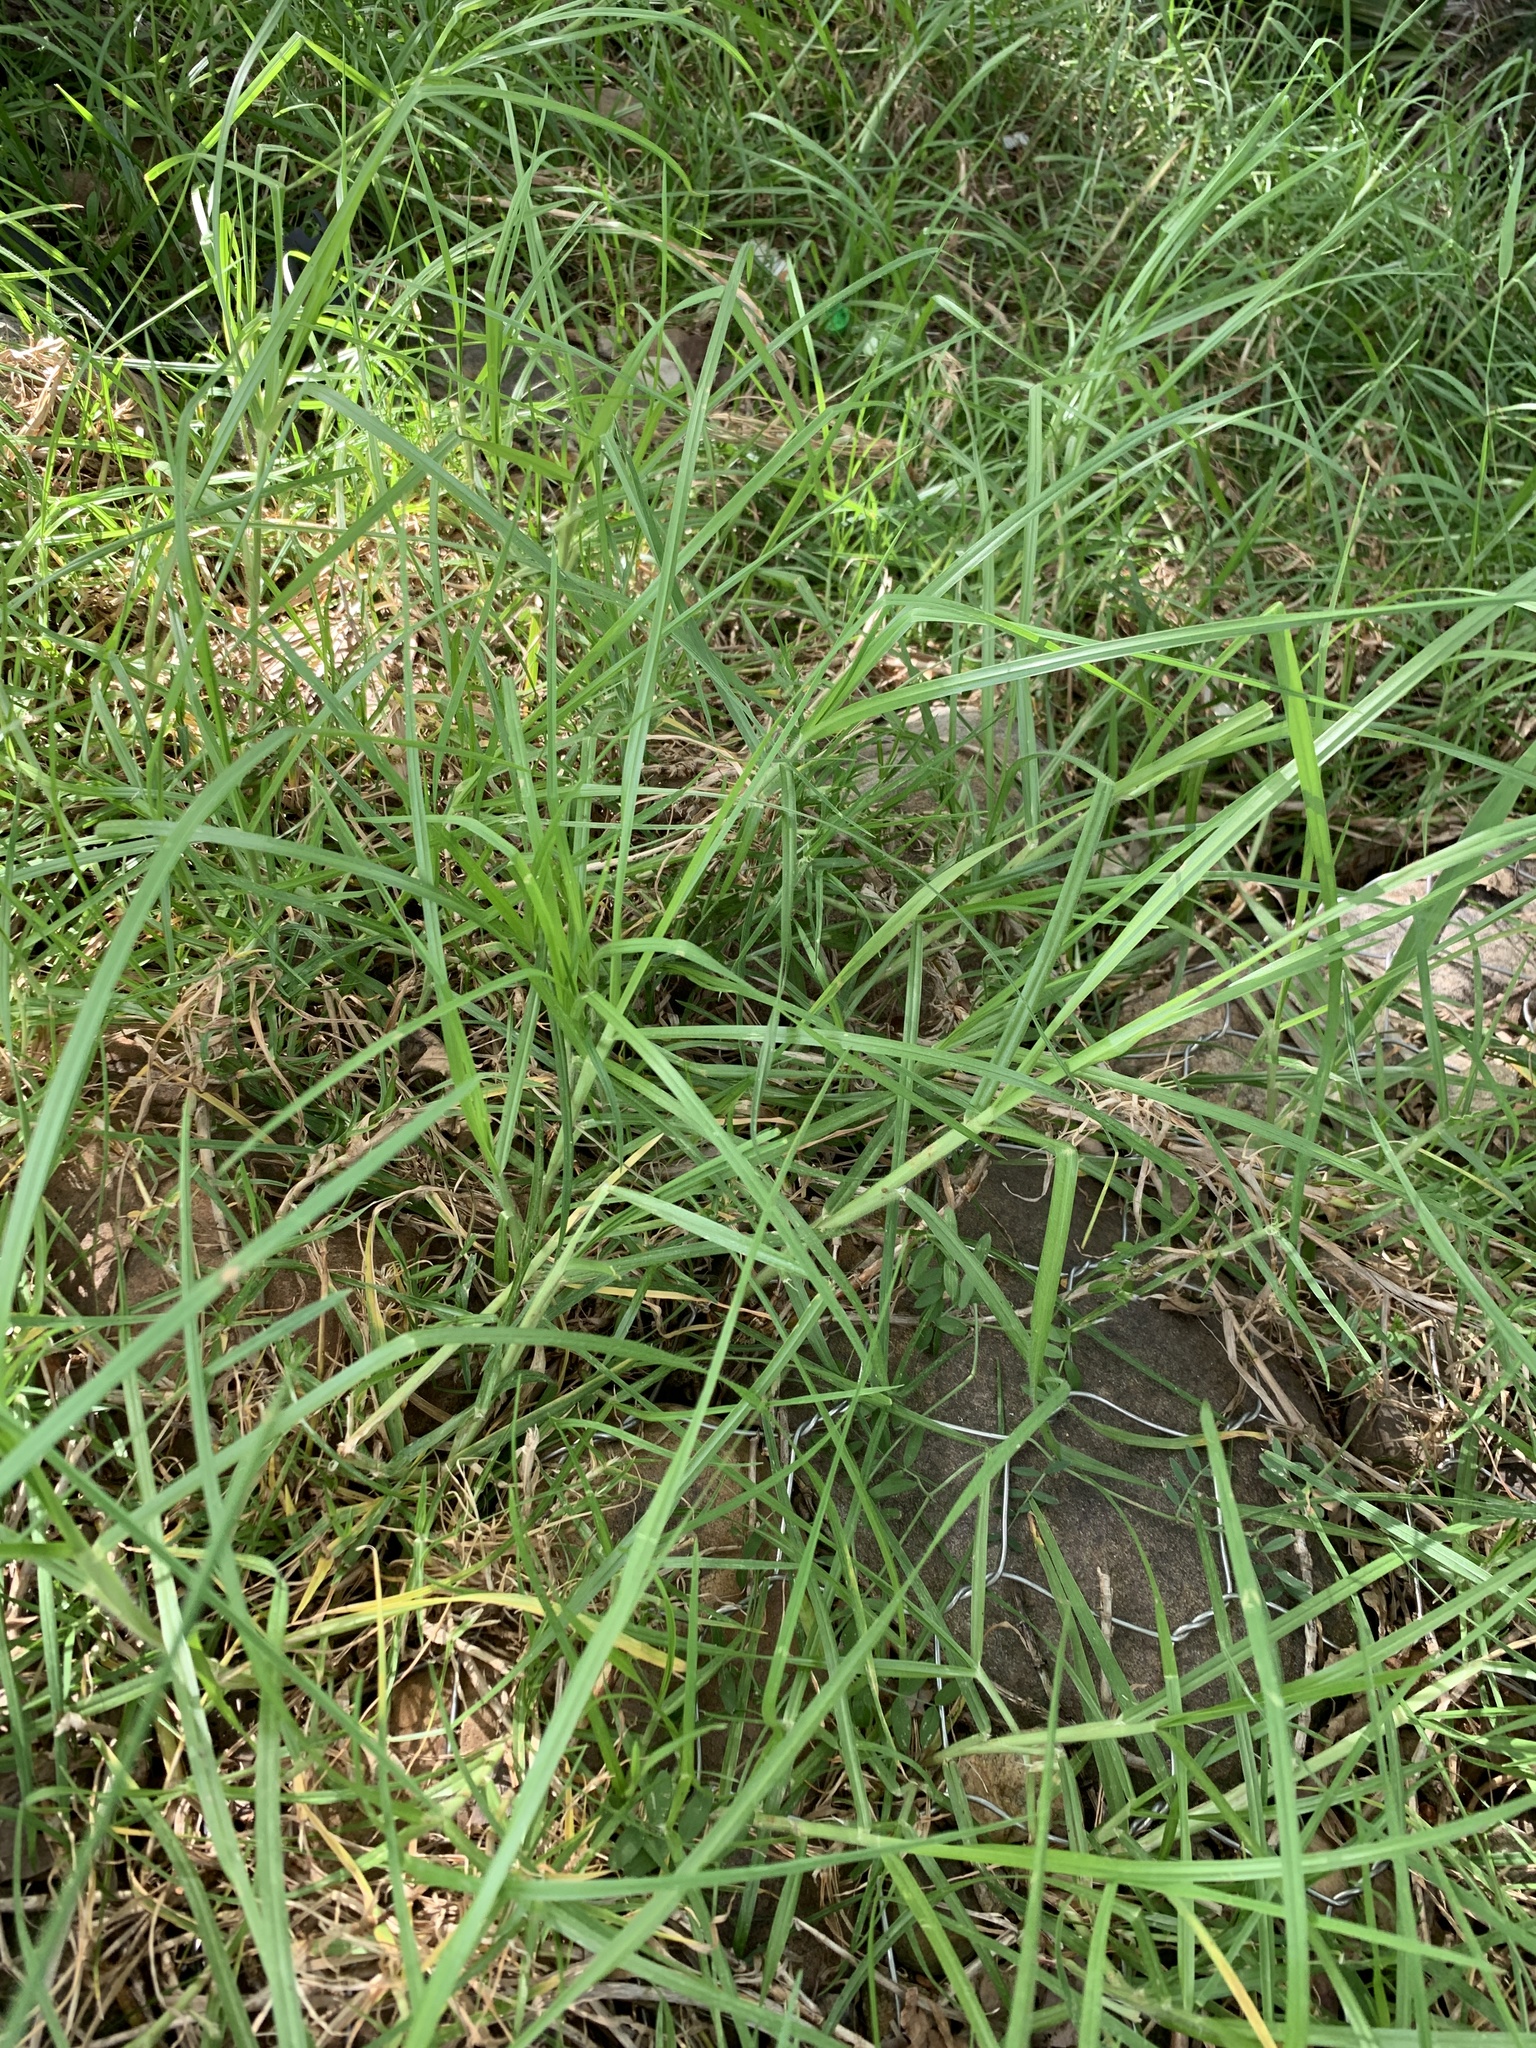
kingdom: Plantae
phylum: Tracheophyta
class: Liliopsida
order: Poales
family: Poaceae
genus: Cenchrus
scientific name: Cenchrus clandestinus
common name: Kikuyugrass
